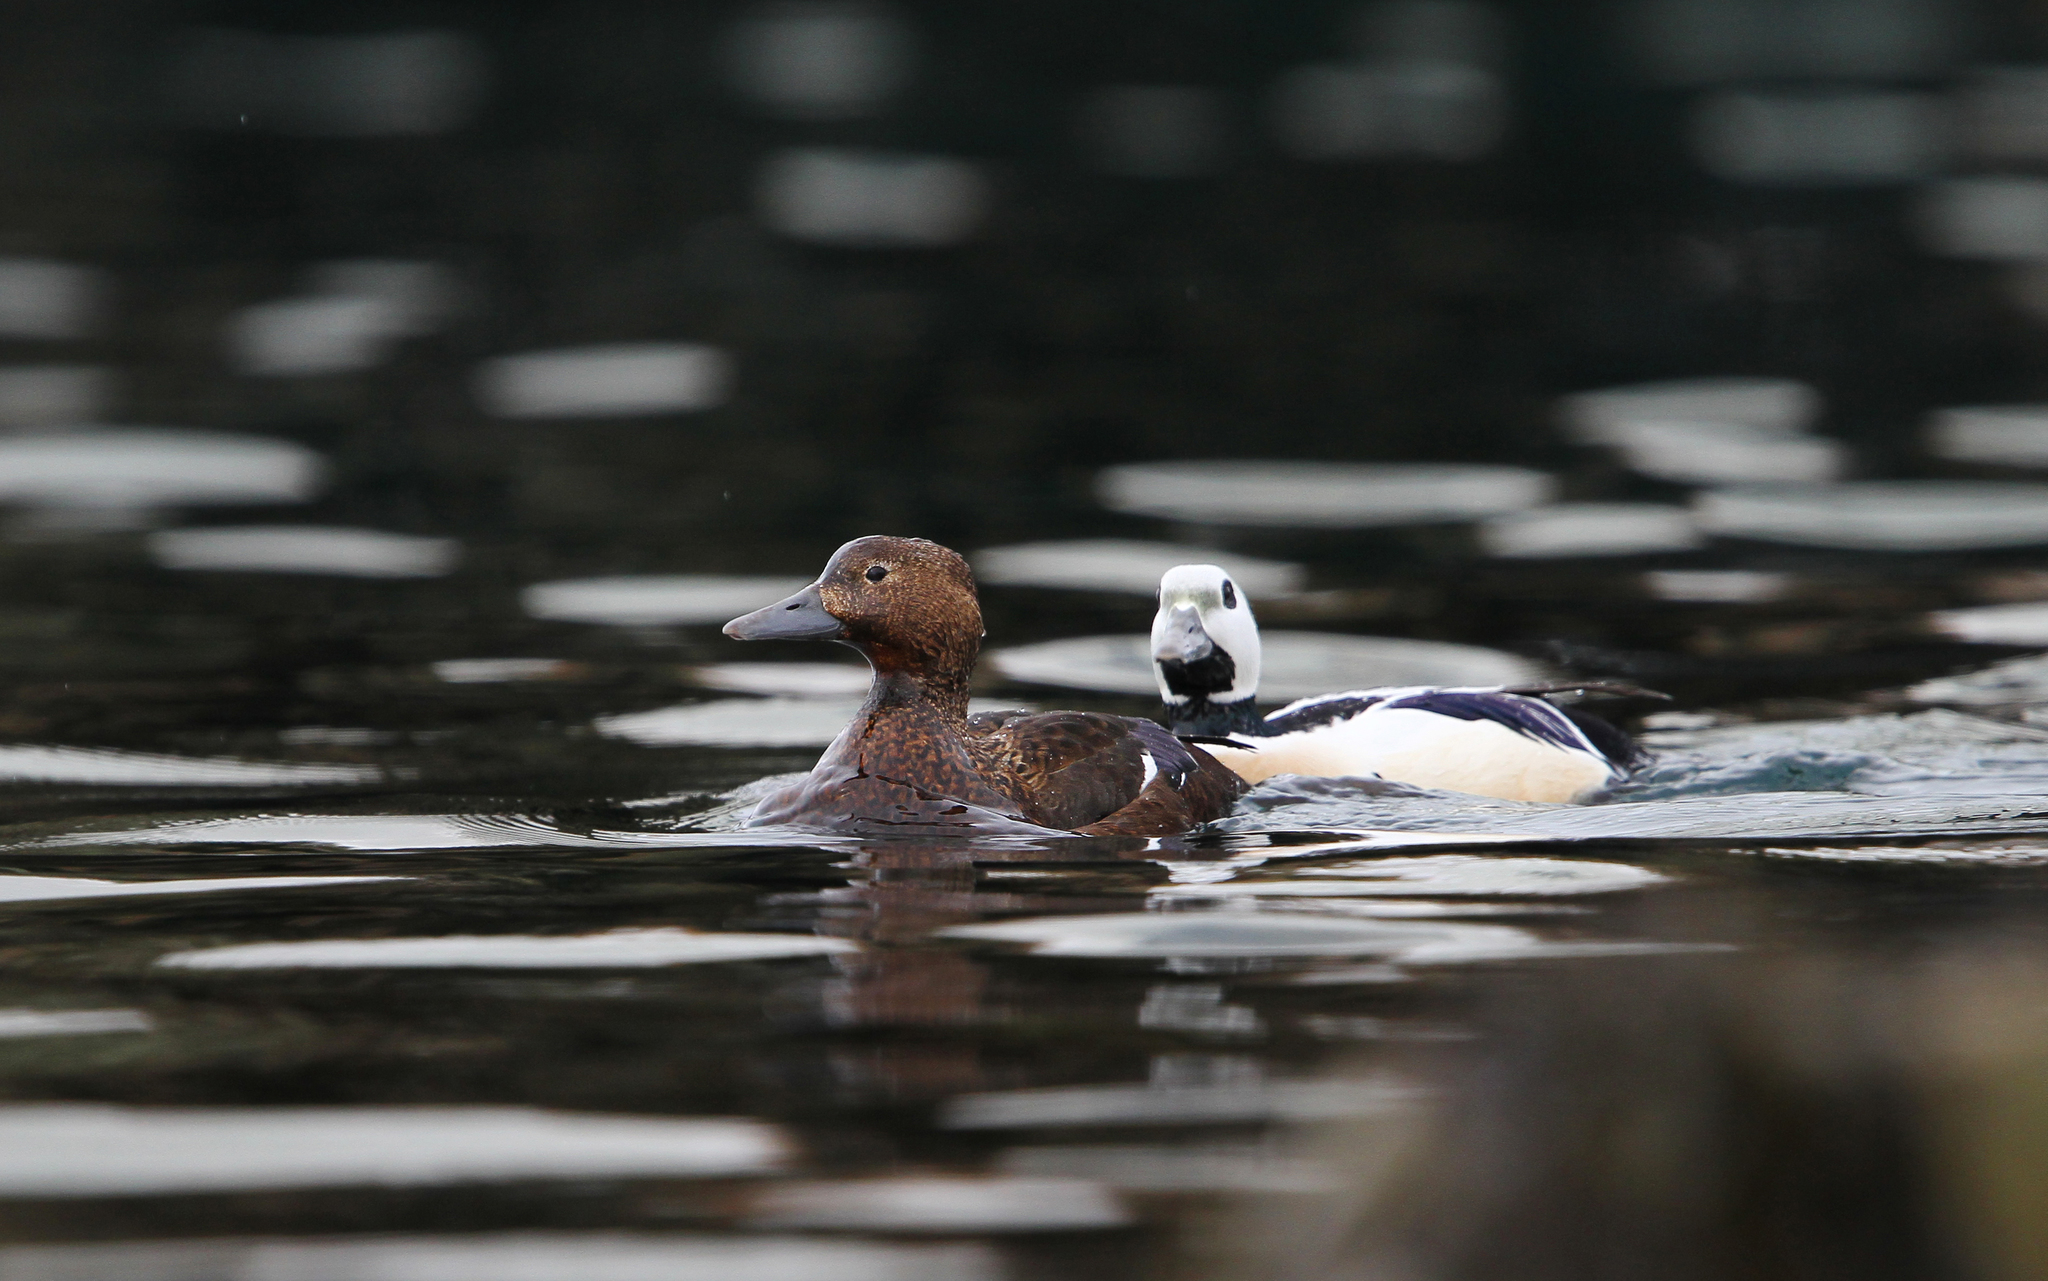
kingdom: Animalia
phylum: Chordata
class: Aves
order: Anseriformes
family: Anatidae
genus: Polysticta
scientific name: Polysticta stelleri
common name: Steller's eider
